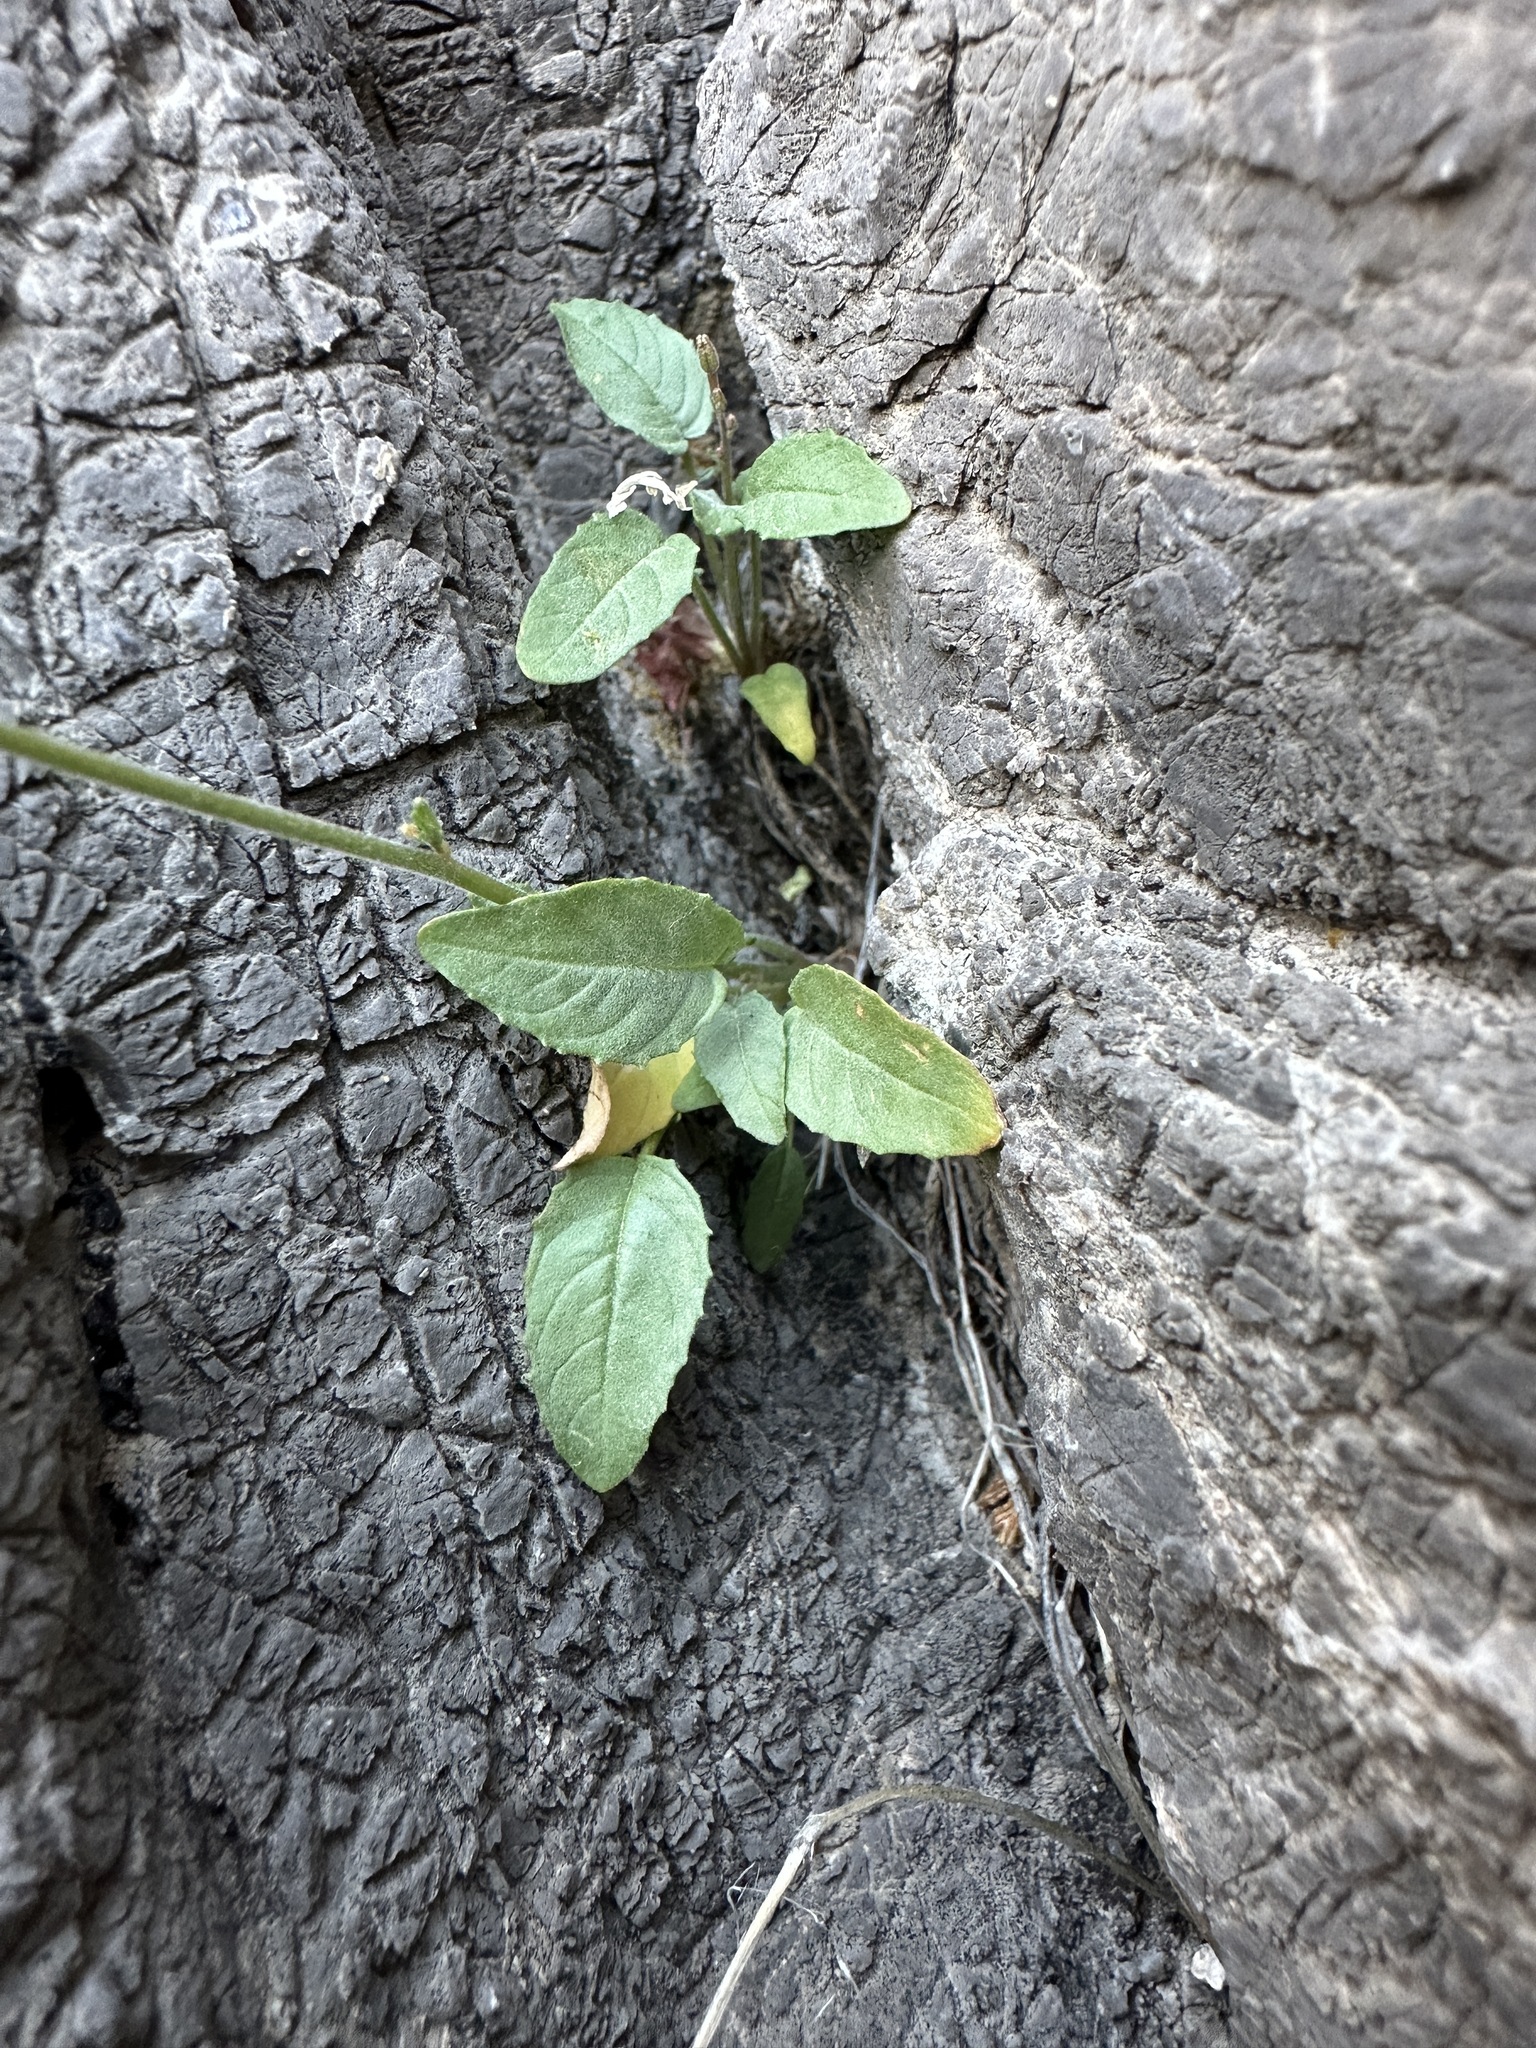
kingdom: Plantae
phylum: Tracheophyta
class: Magnoliopsida
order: Myrtales
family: Onagraceae
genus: Chylismia
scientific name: Chylismia scapoidea
